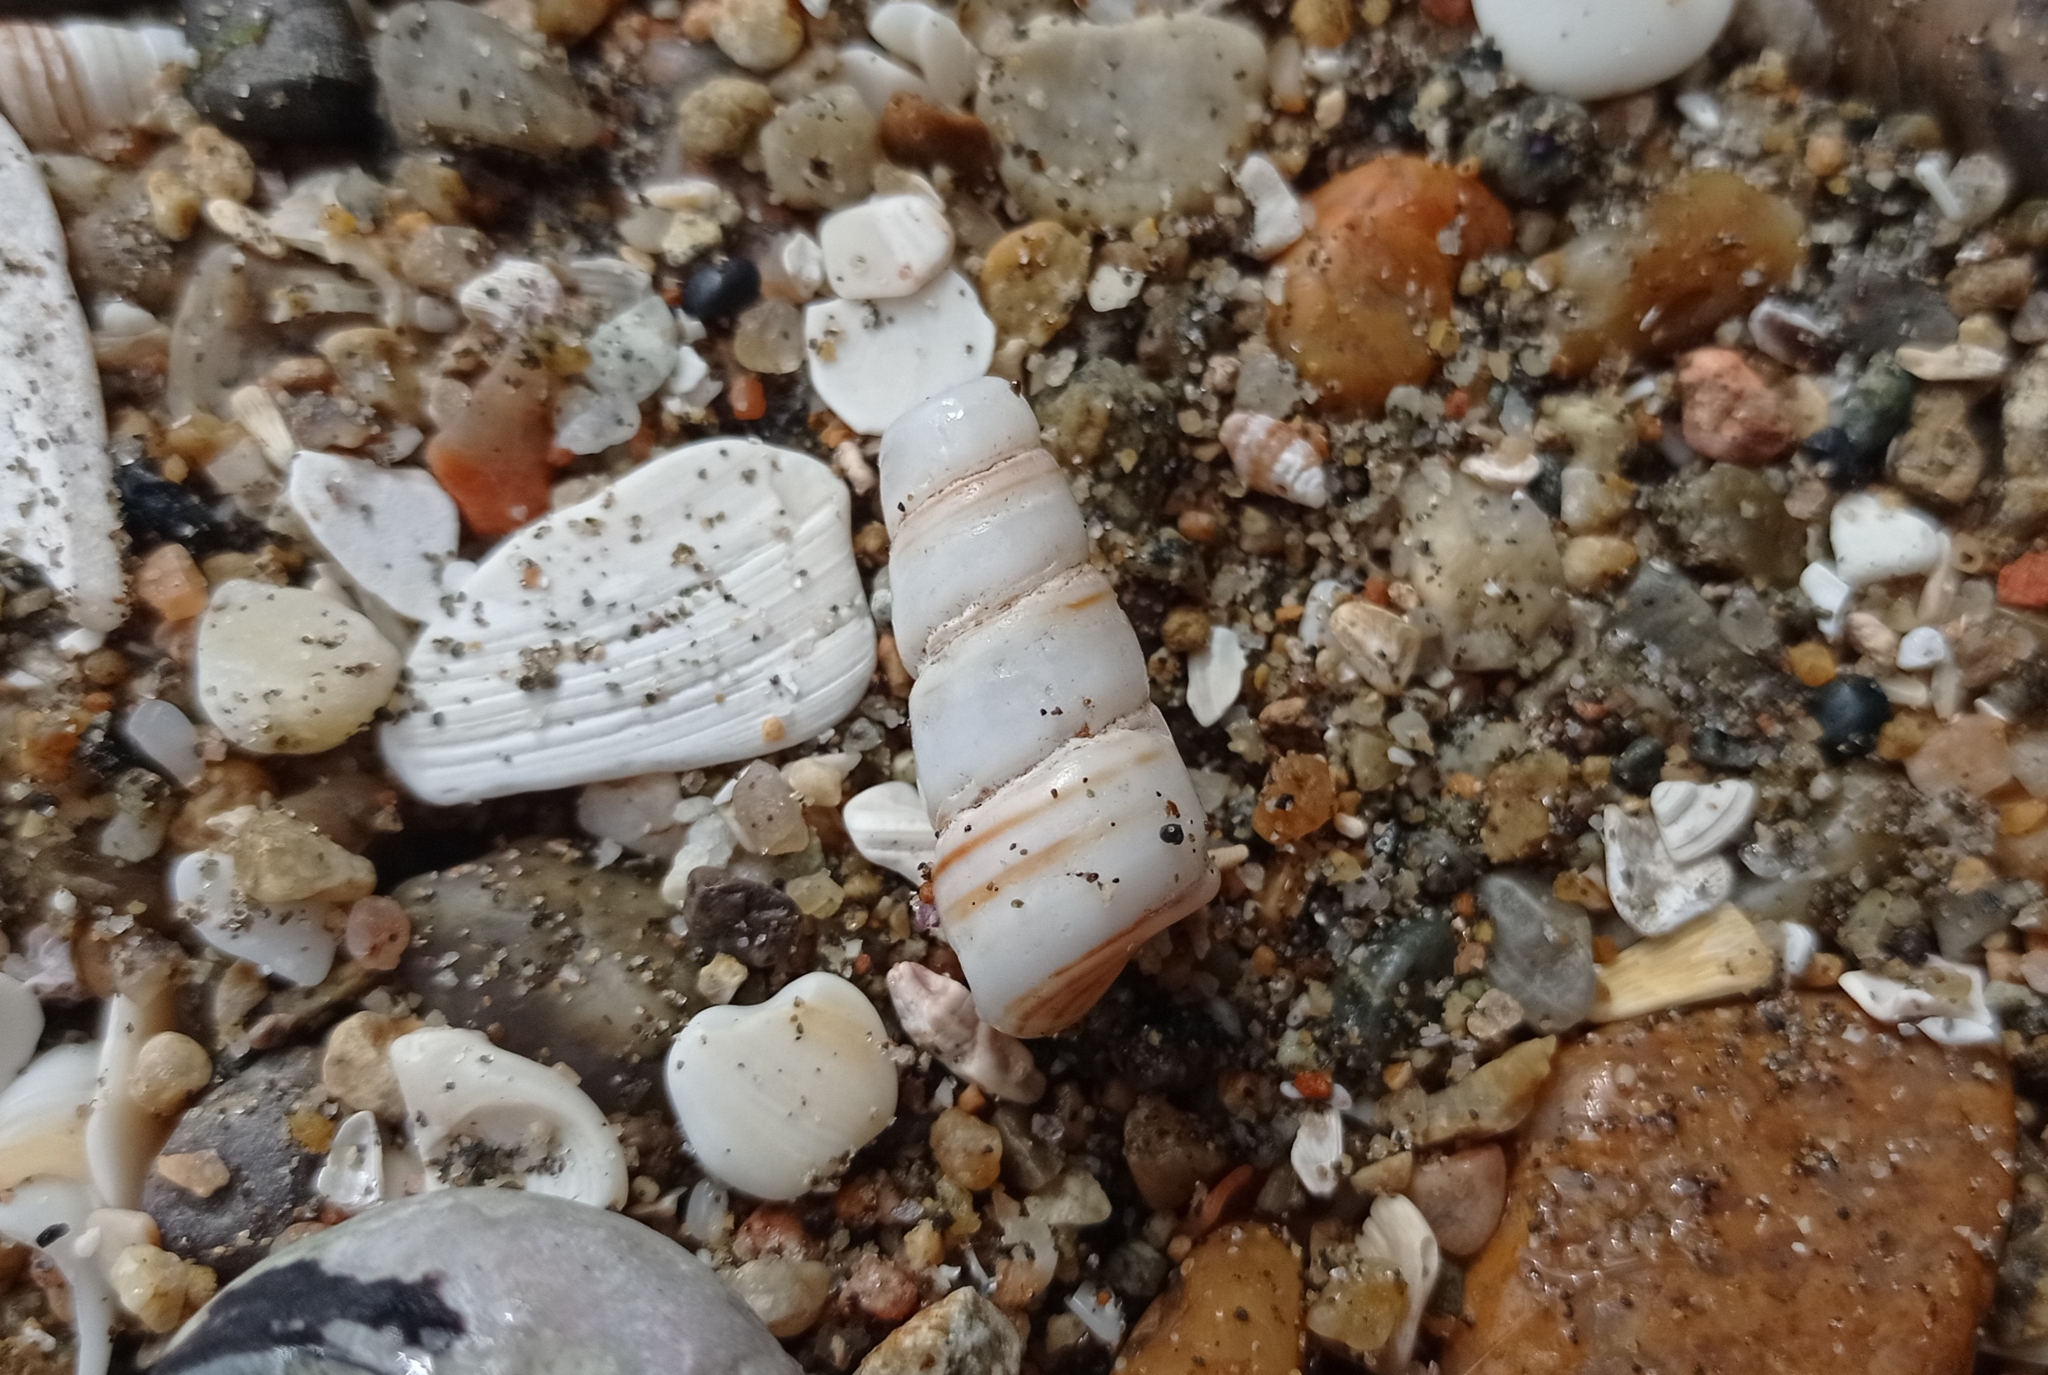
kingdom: Animalia
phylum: Mollusca
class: Gastropoda
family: Turritellidae
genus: Incatella
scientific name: Incatella cingulata
